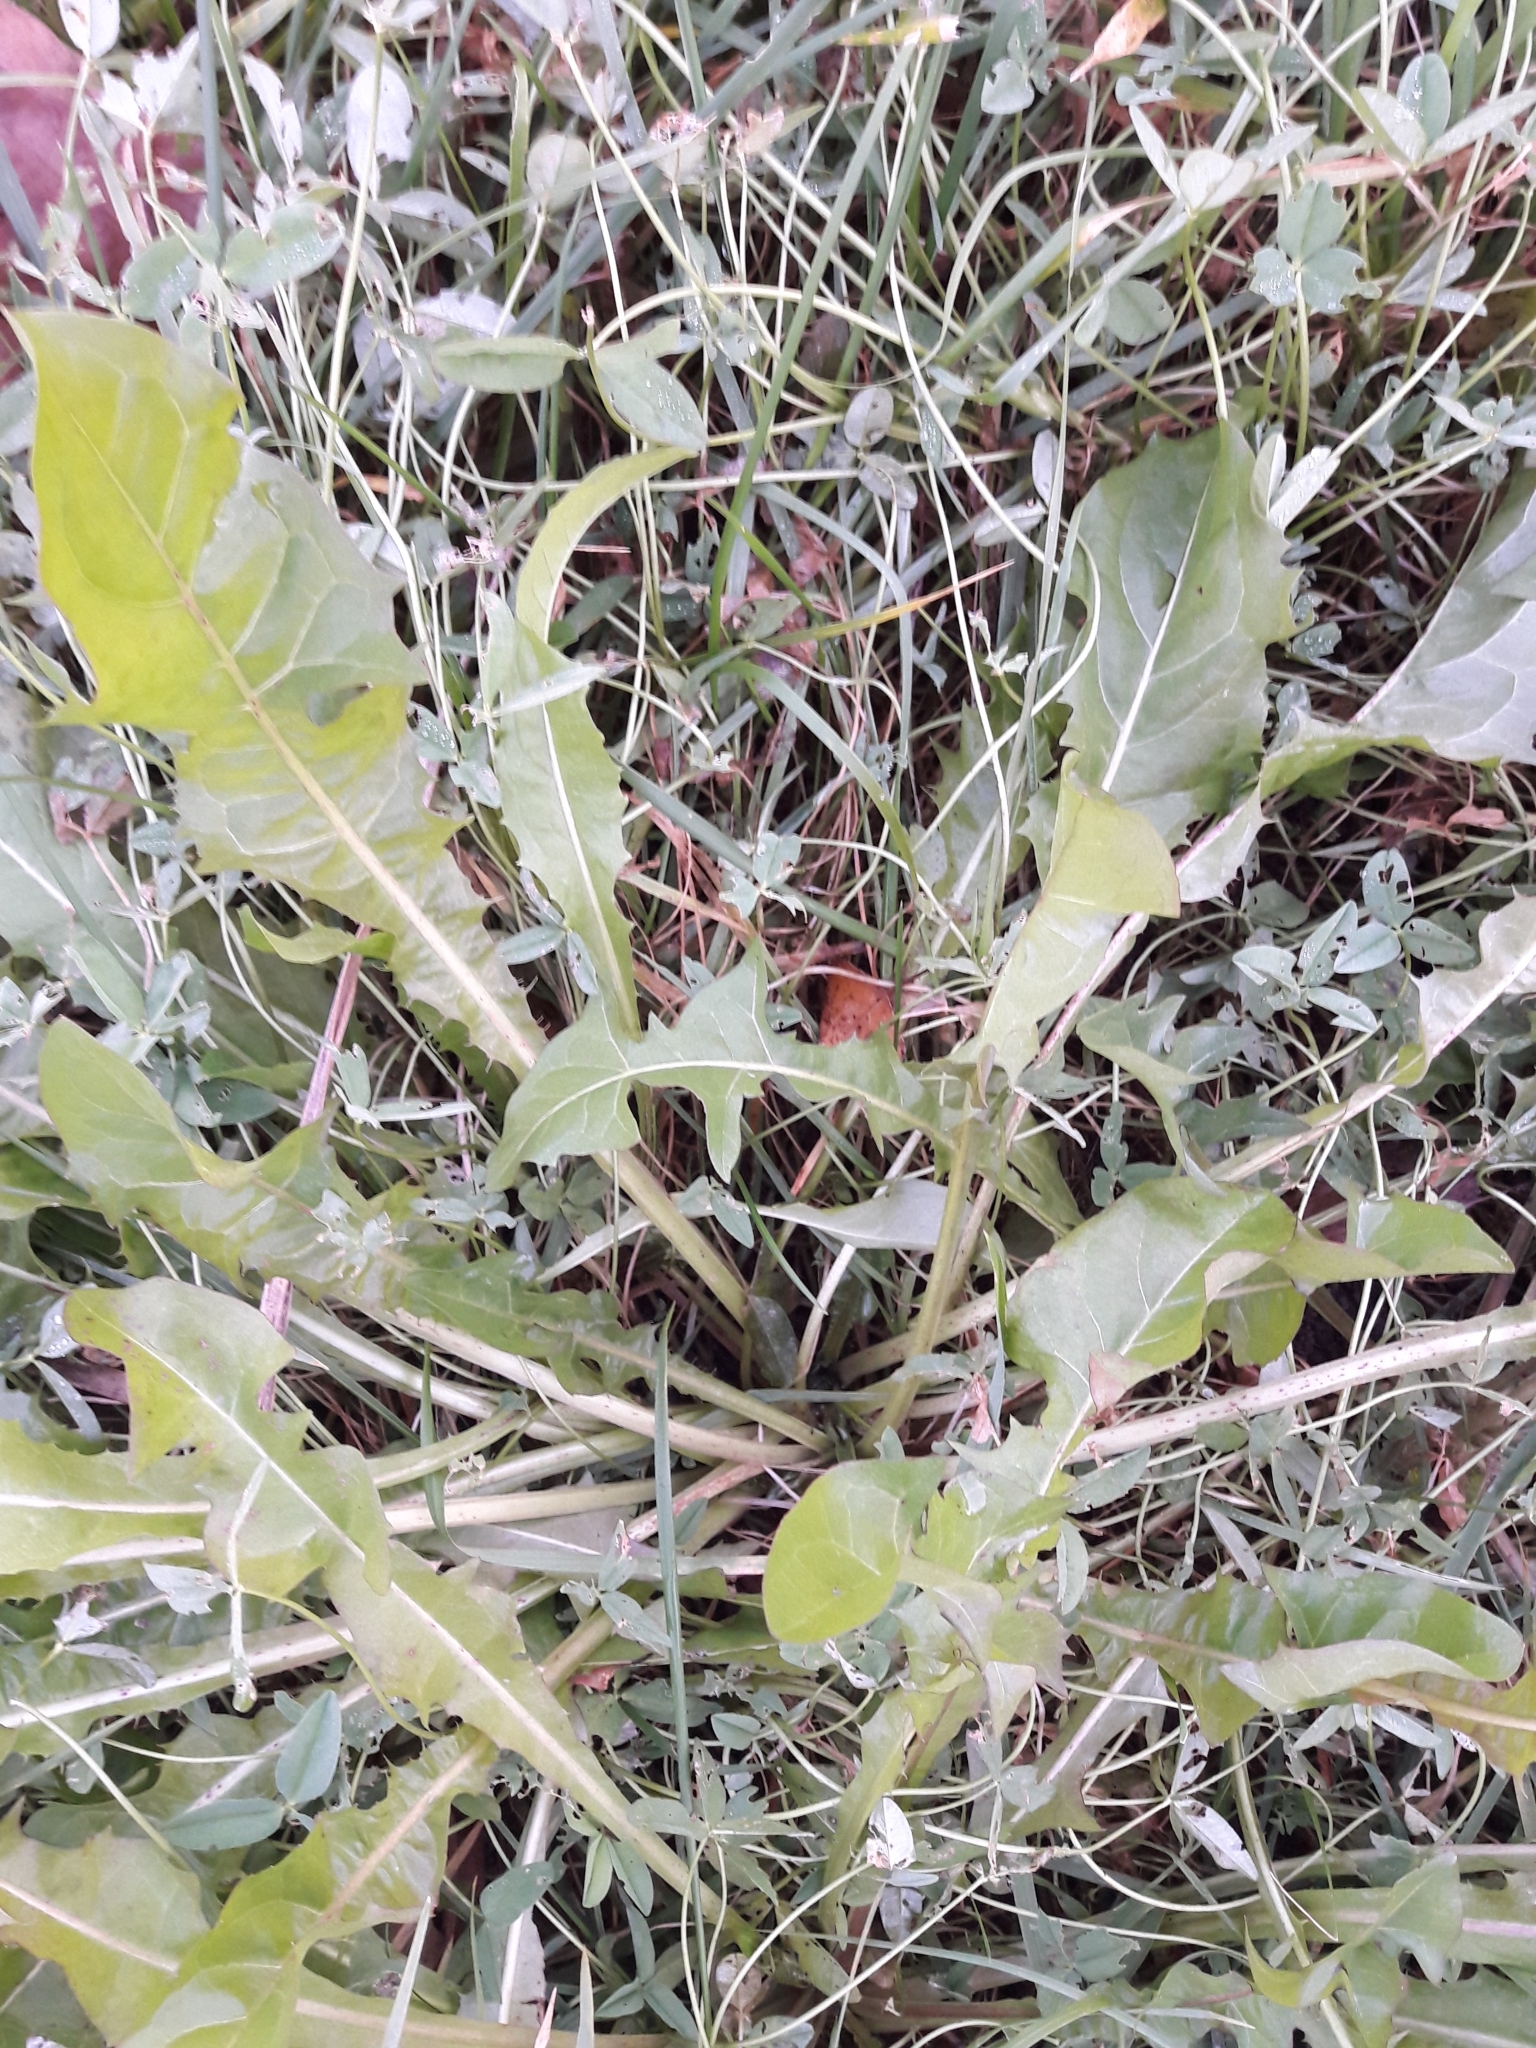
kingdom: Plantae
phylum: Tracheophyta
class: Magnoliopsida
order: Asterales
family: Asteraceae
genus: Taraxacum
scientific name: Taraxacum officinale
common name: Common dandelion
